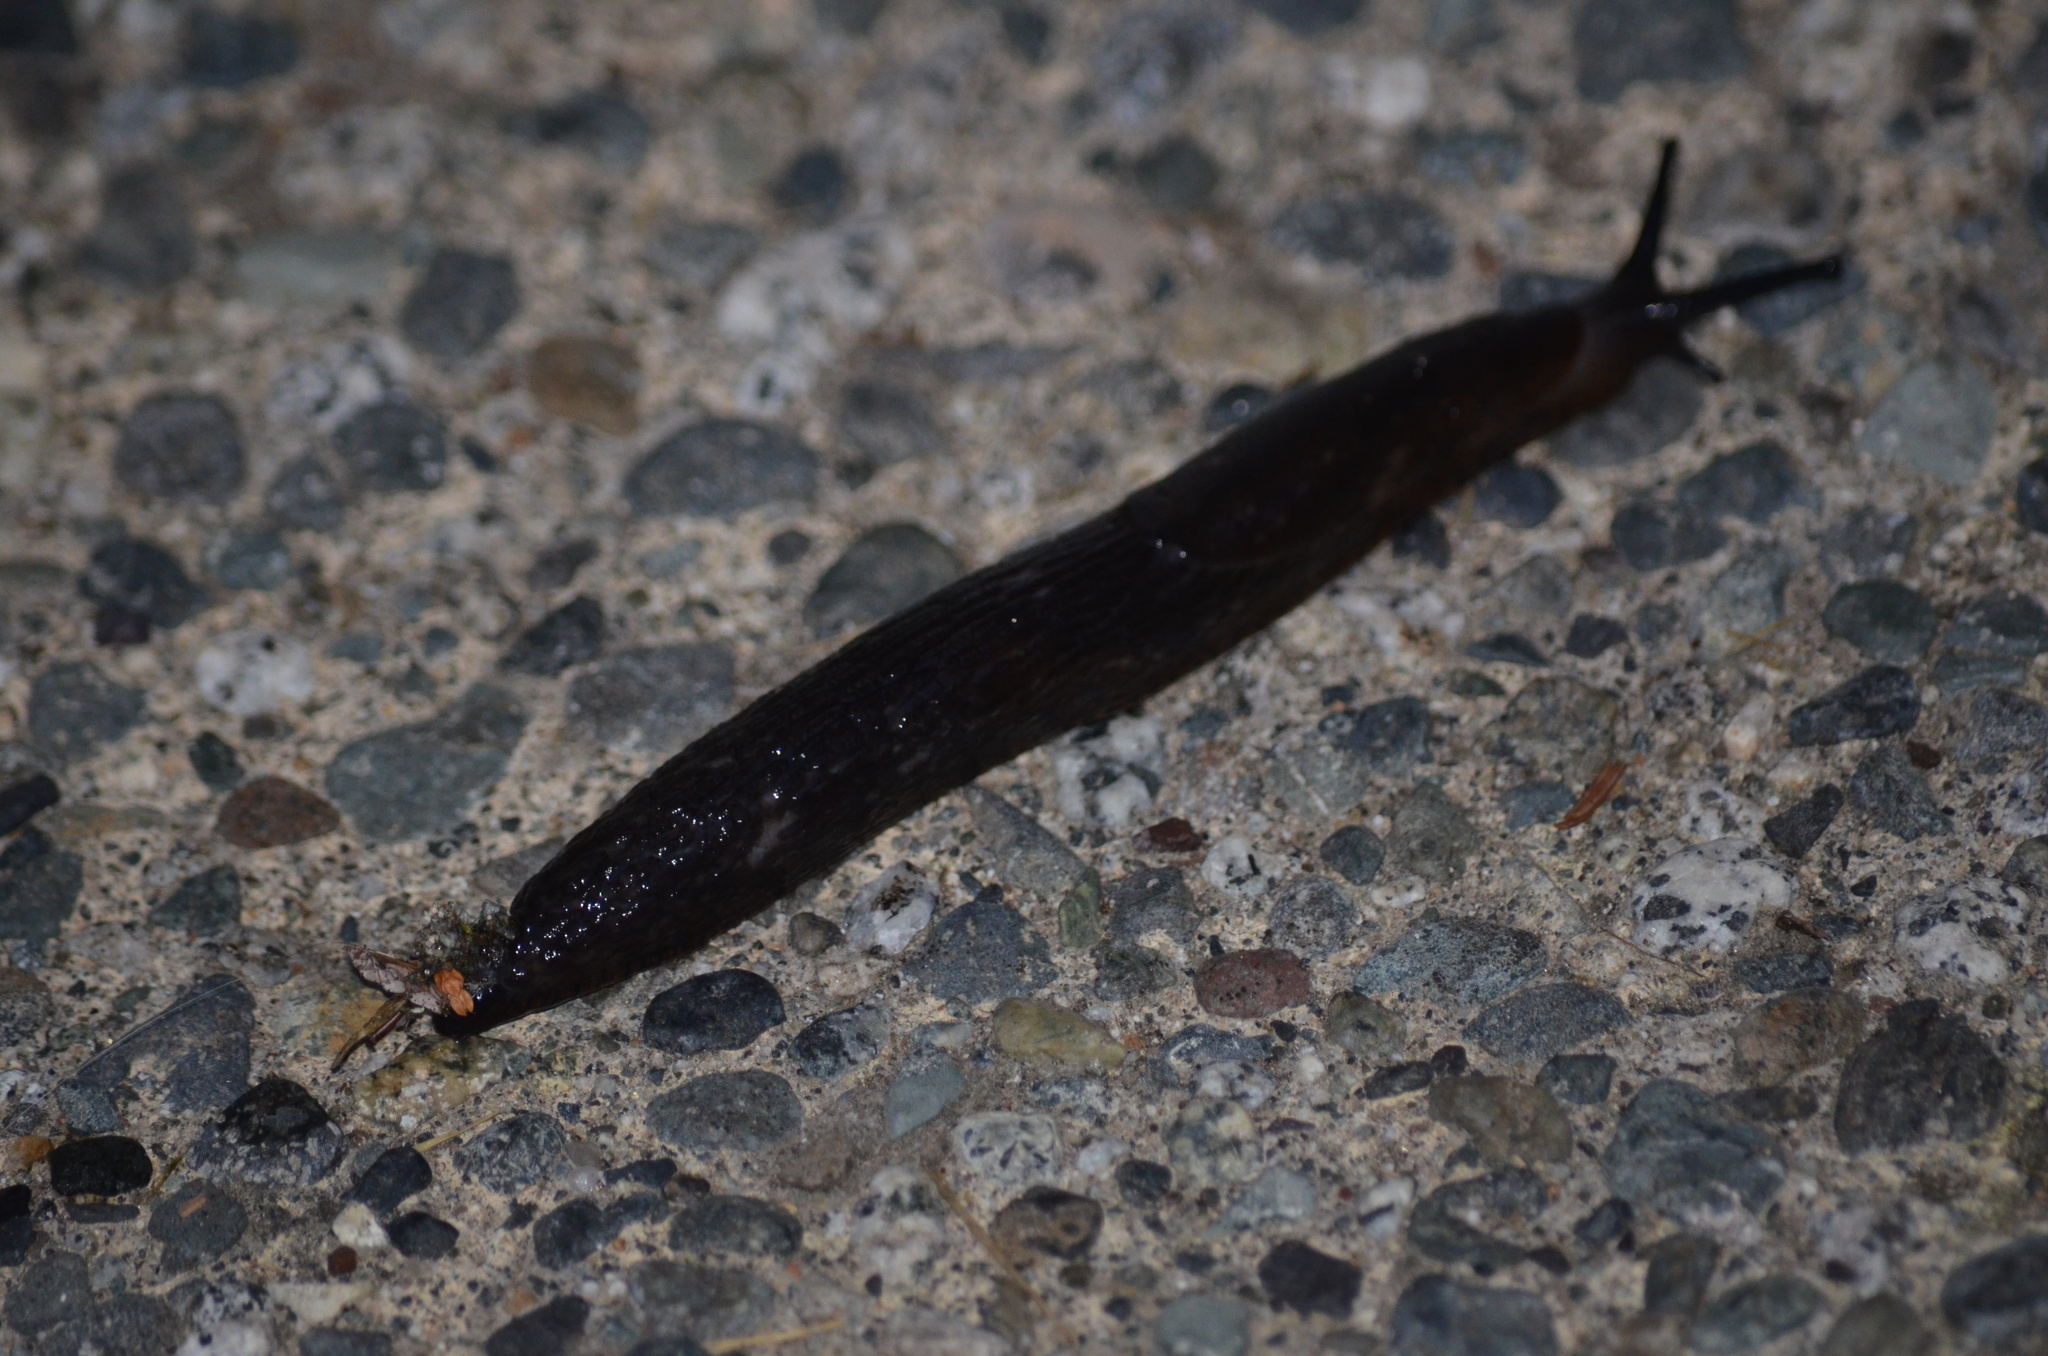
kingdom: Animalia
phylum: Mollusca
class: Gastropoda
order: Stylommatophora
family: Arionidae
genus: Arion
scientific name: Arion
